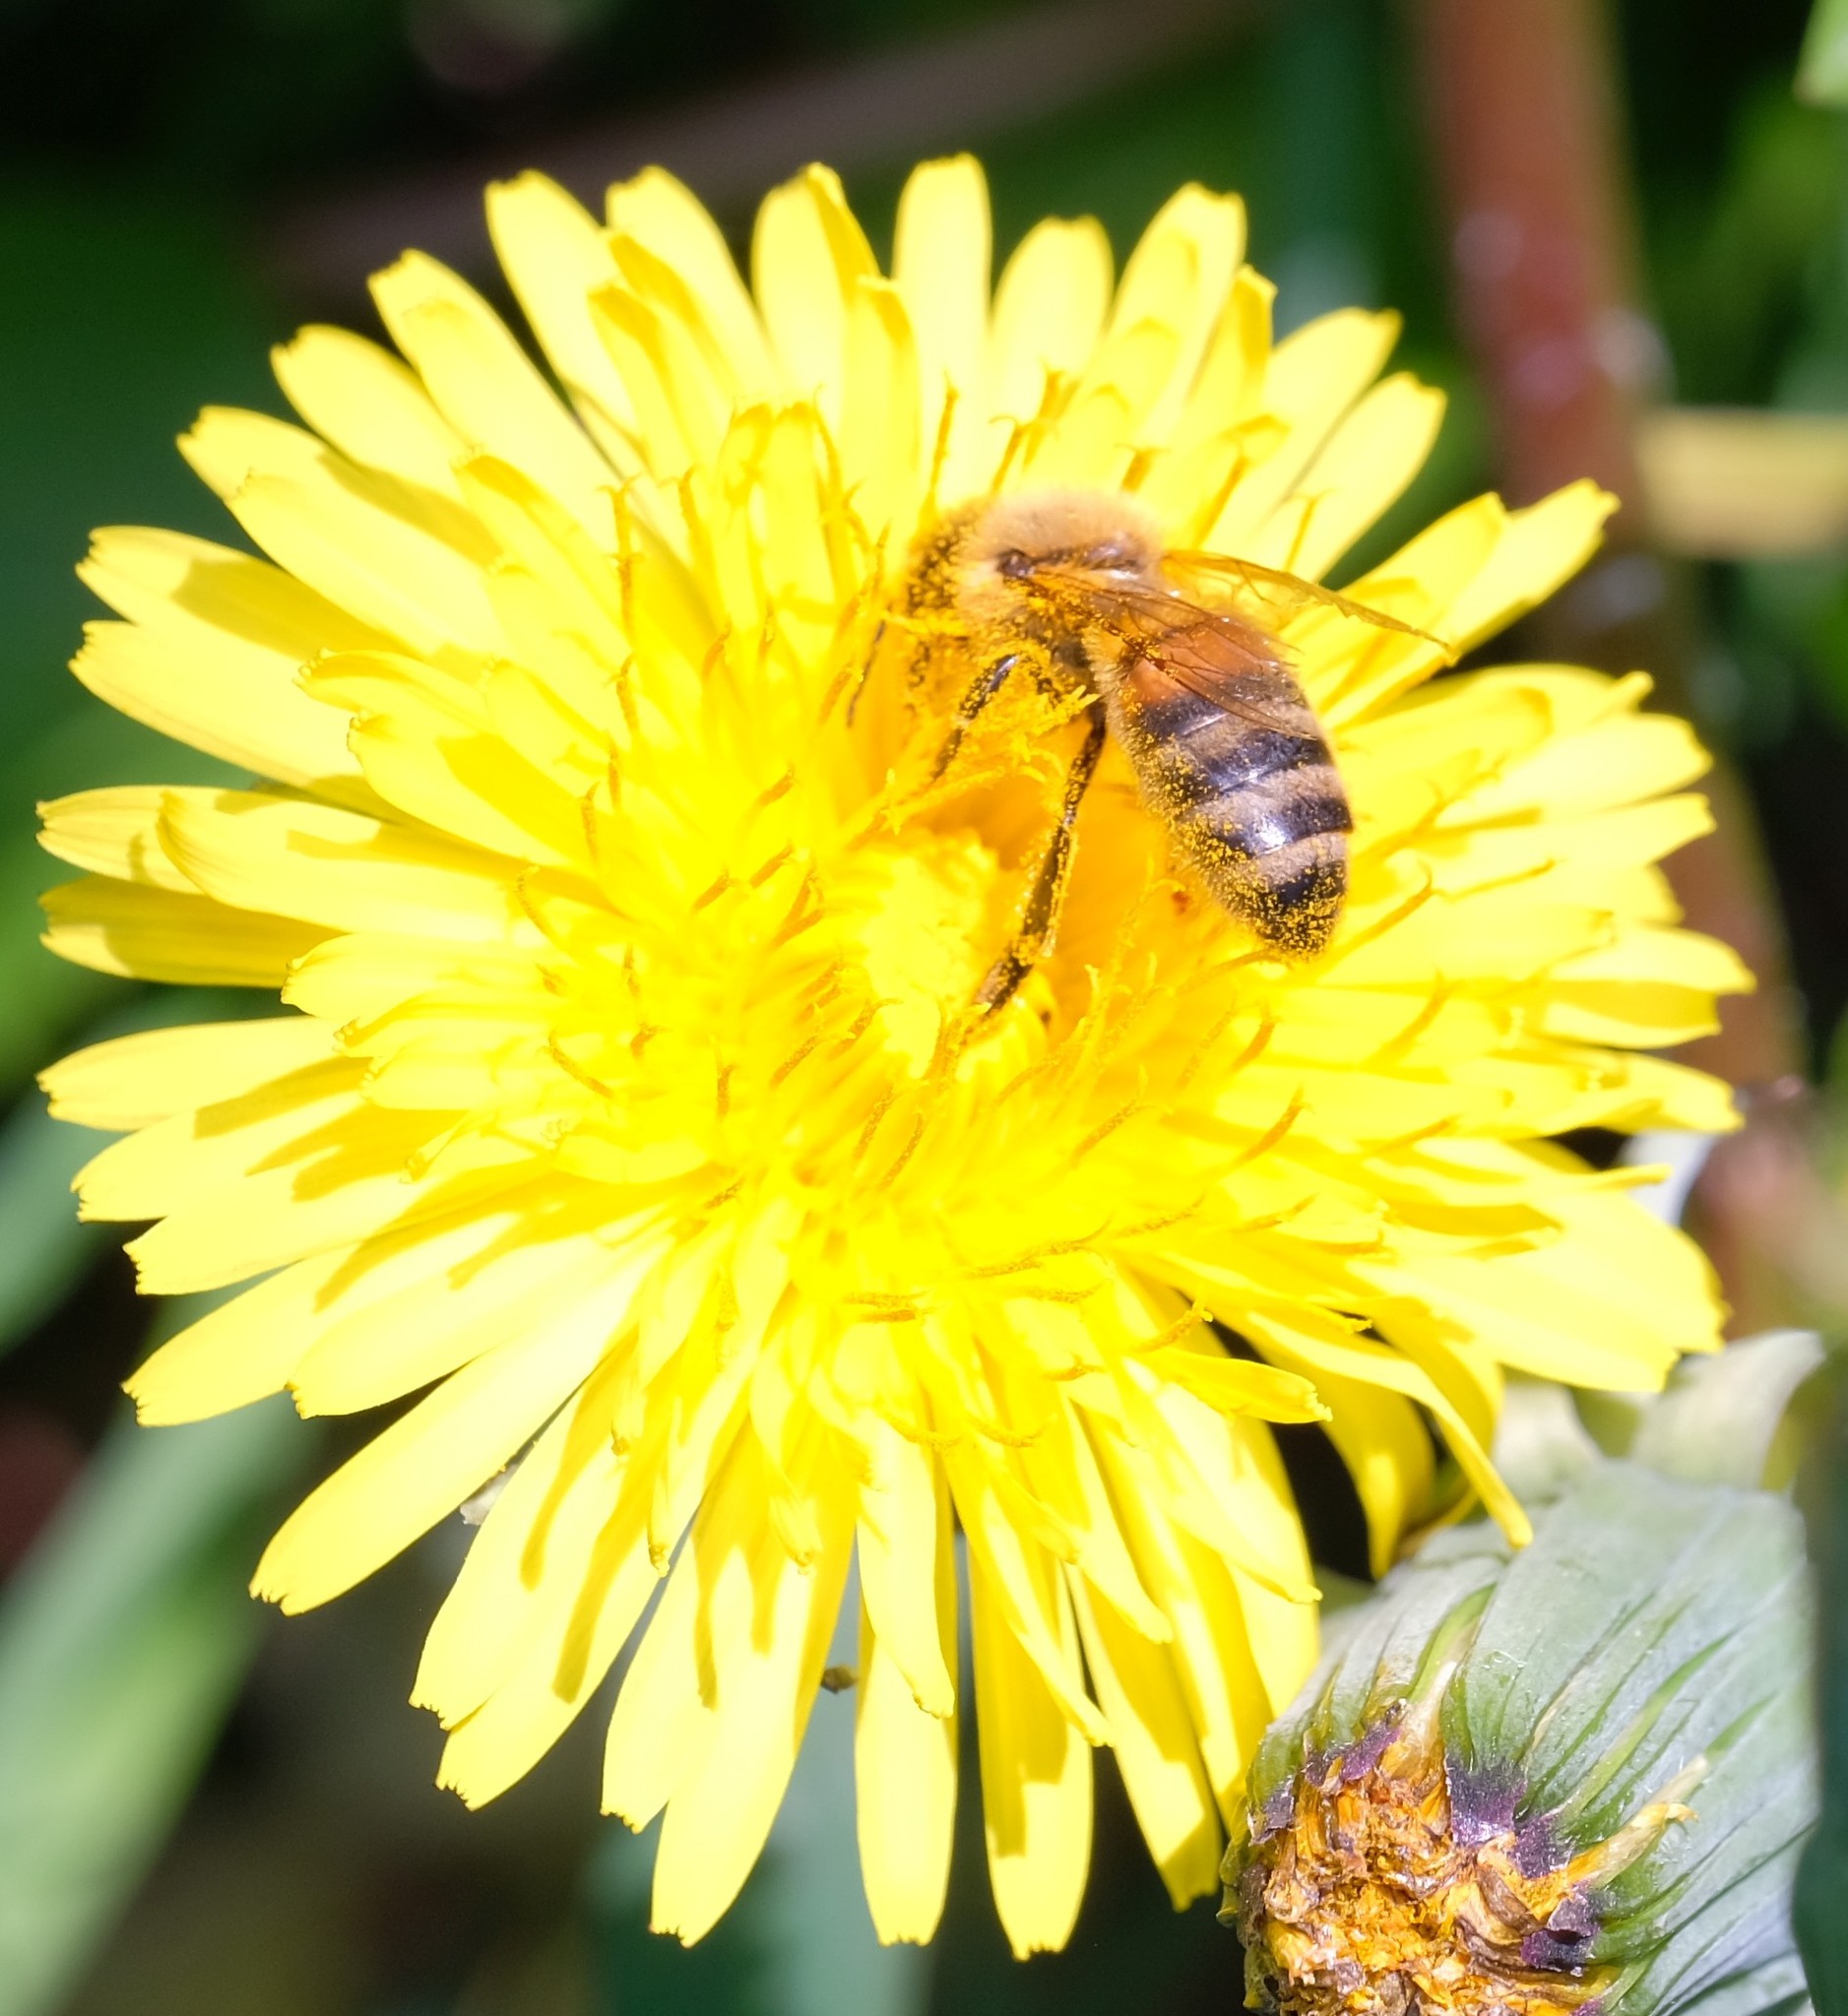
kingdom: Animalia
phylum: Arthropoda
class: Insecta
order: Hymenoptera
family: Apidae
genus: Apis
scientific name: Apis mellifera
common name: Honey bee
